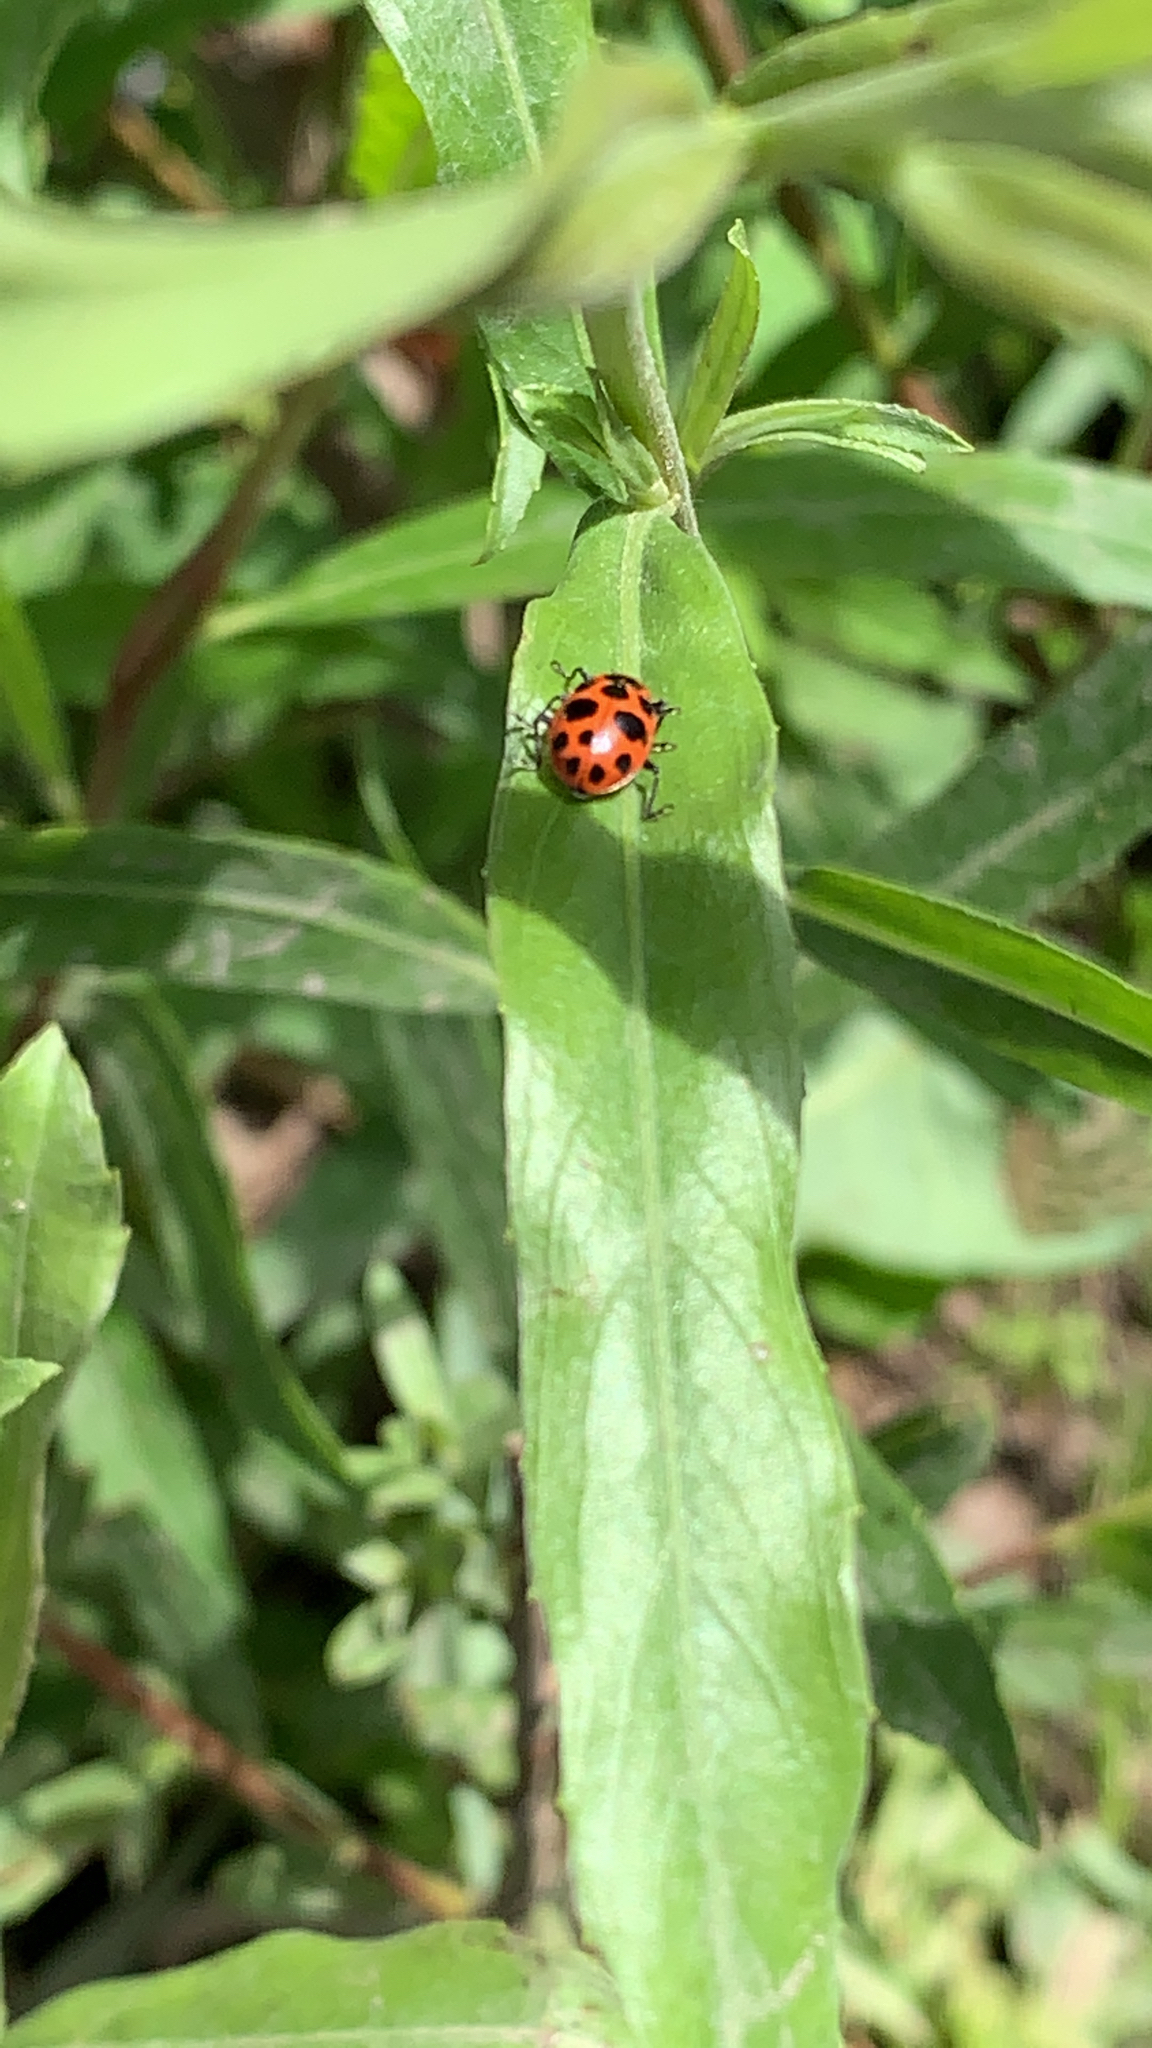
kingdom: Animalia
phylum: Arthropoda
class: Insecta
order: Coleoptera
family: Coccinellidae
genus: Coleomegilla
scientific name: Coleomegilla maculata
